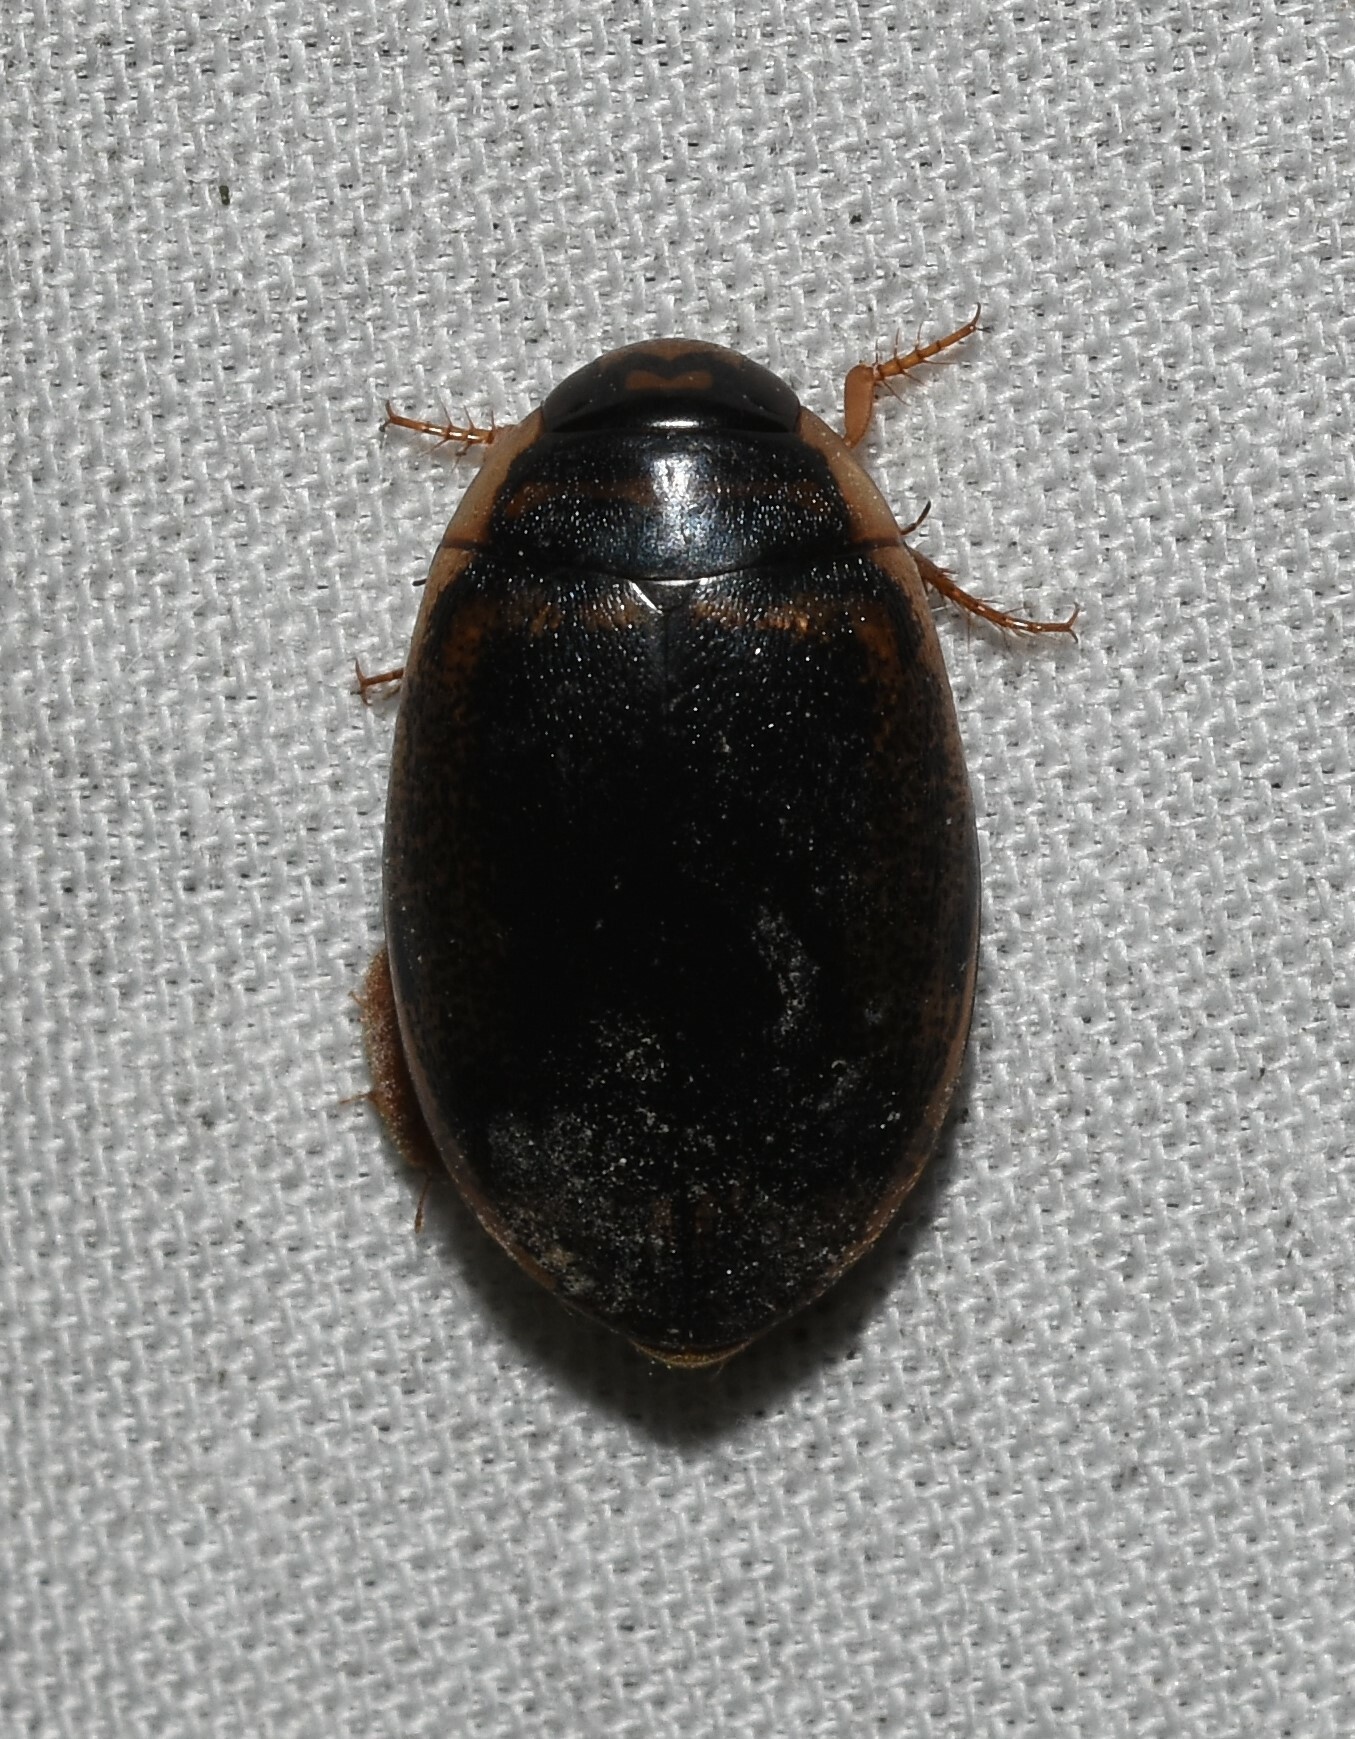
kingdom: Animalia
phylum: Arthropoda
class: Insecta
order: Coleoptera
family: Dytiscidae
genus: Thermonectus
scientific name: Thermonectus basillaris
